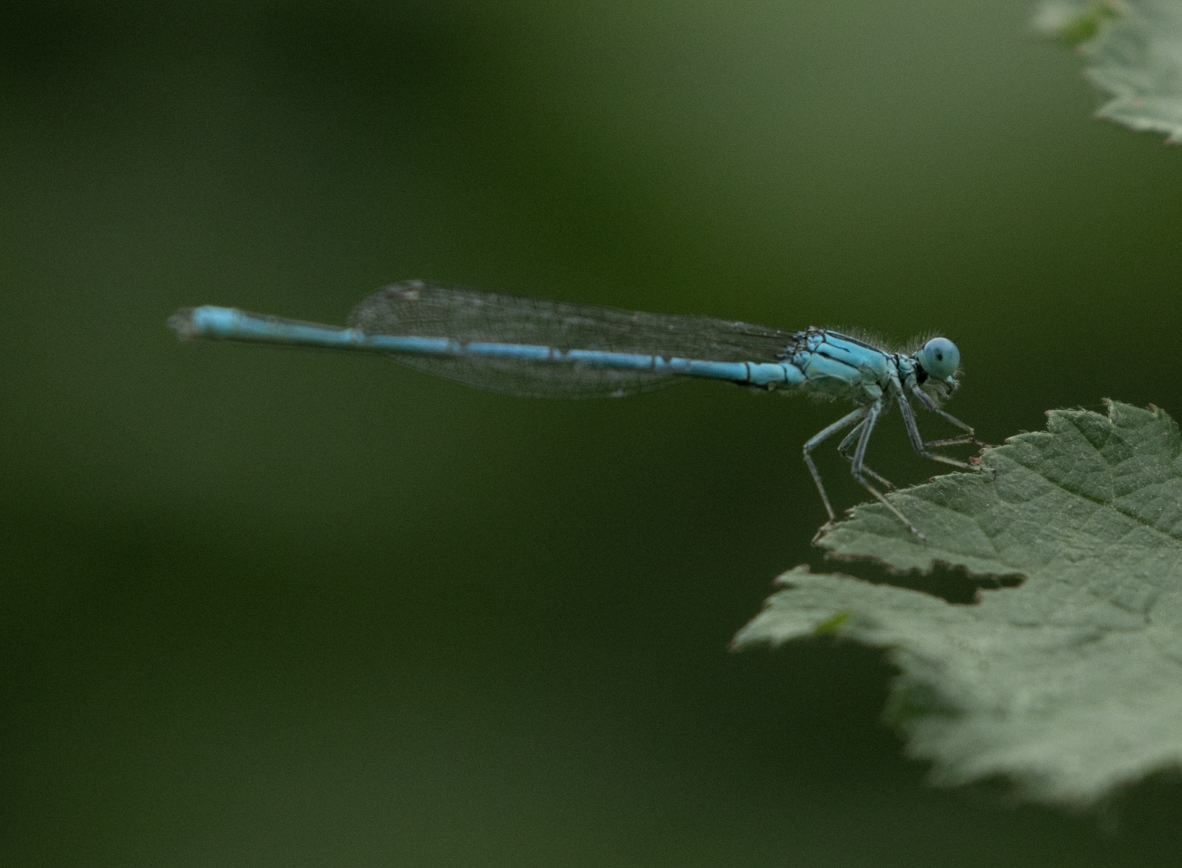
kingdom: Animalia
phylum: Arthropoda
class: Insecta
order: Odonata
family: Coenagrionidae
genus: Erythromma
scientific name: Erythromma lindenii
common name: Blue-eye
